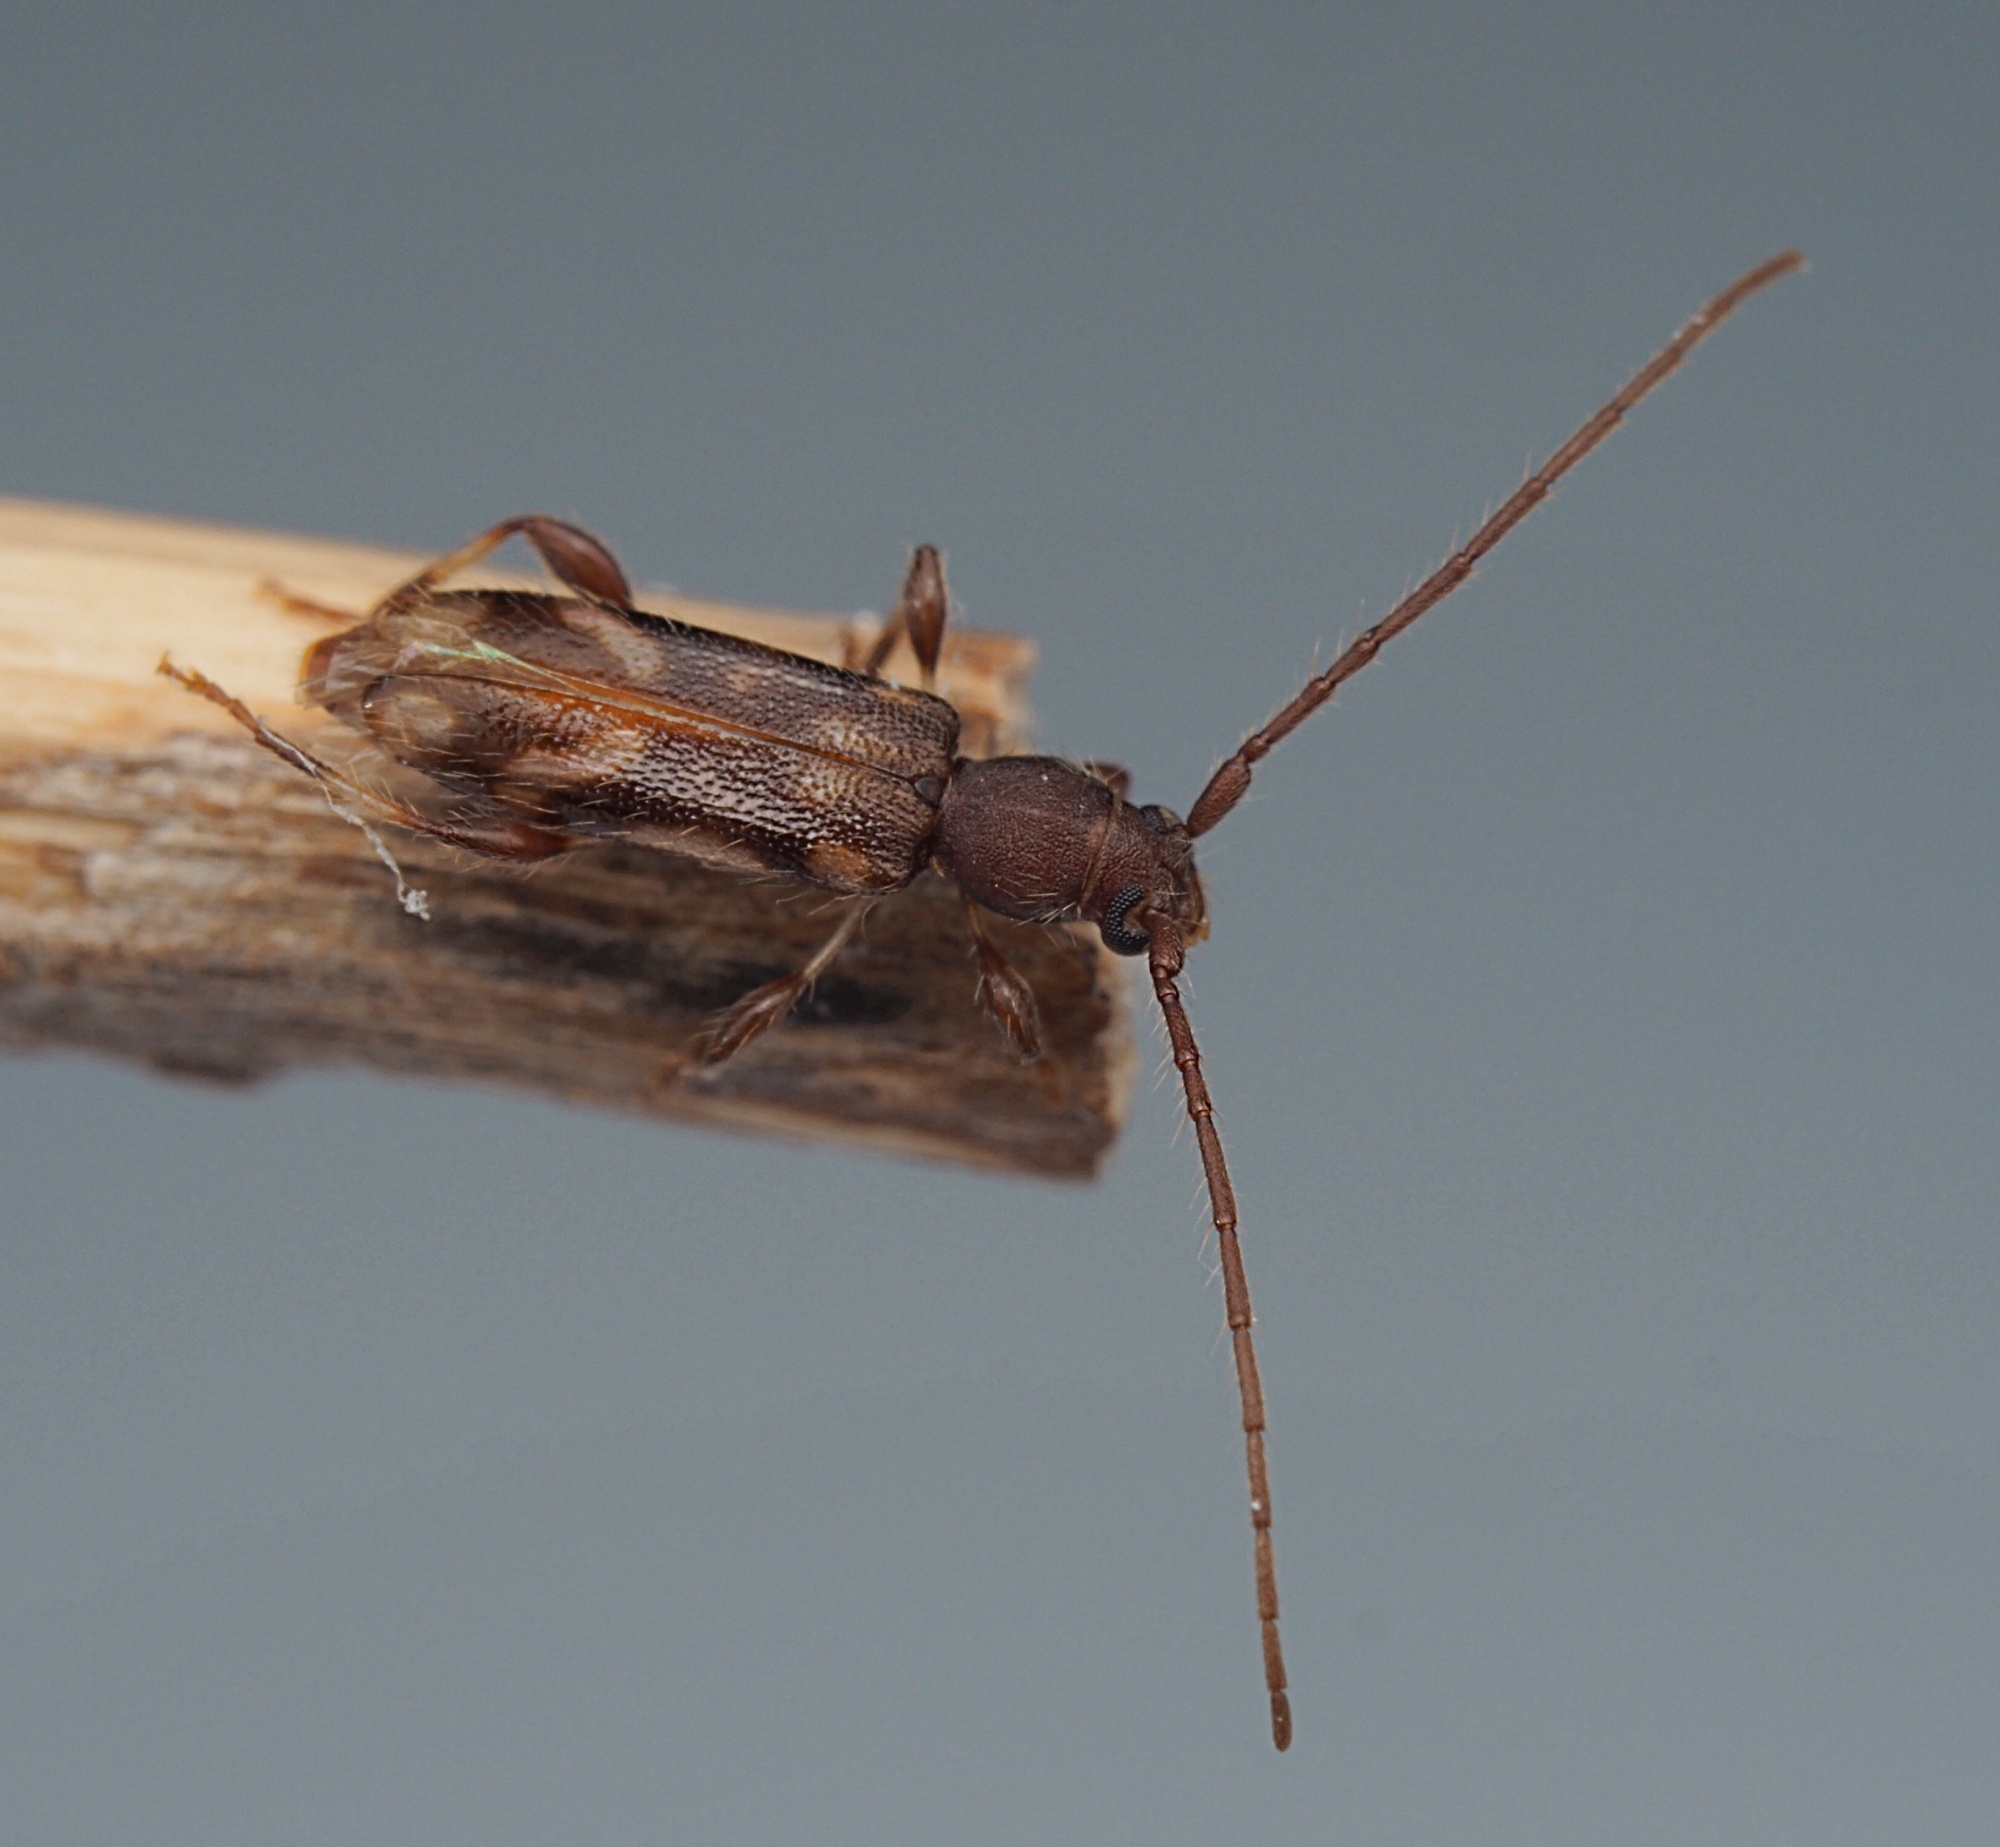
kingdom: Animalia
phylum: Arthropoda
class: Insecta
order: Coleoptera
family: Cerambycidae
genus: Bethelium
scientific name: Bethelium signiferum
